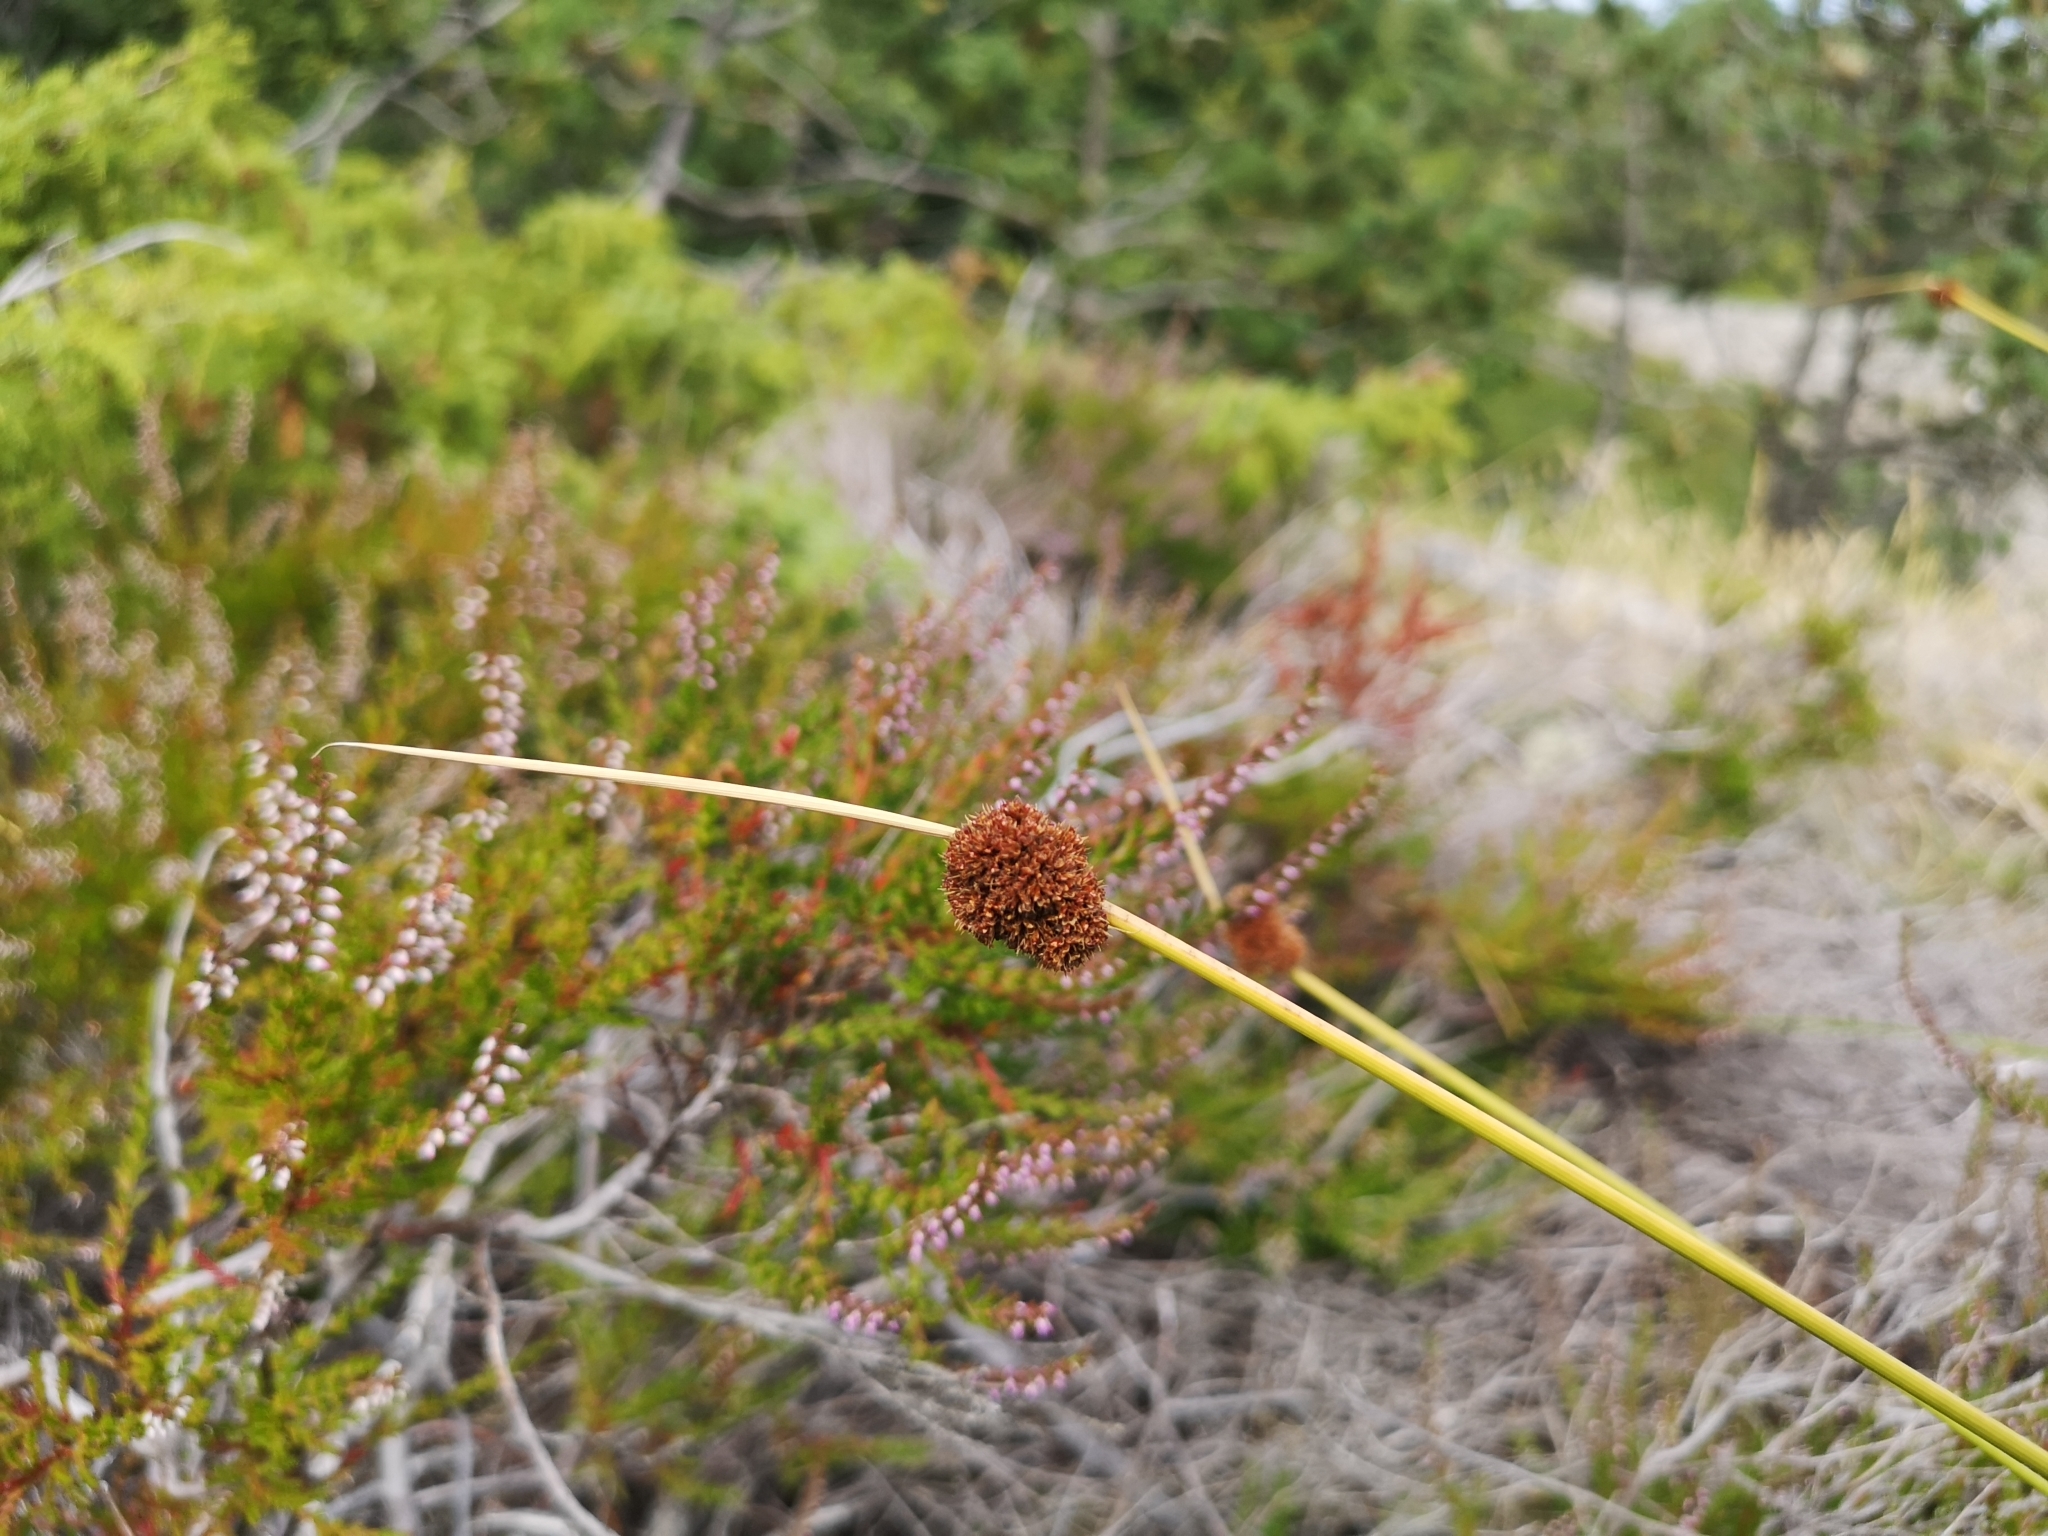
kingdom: Plantae
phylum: Tracheophyta
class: Liliopsida
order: Poales
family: Juncaceae
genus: Juncus
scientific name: Juncus conglomeratus
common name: Compact rush
